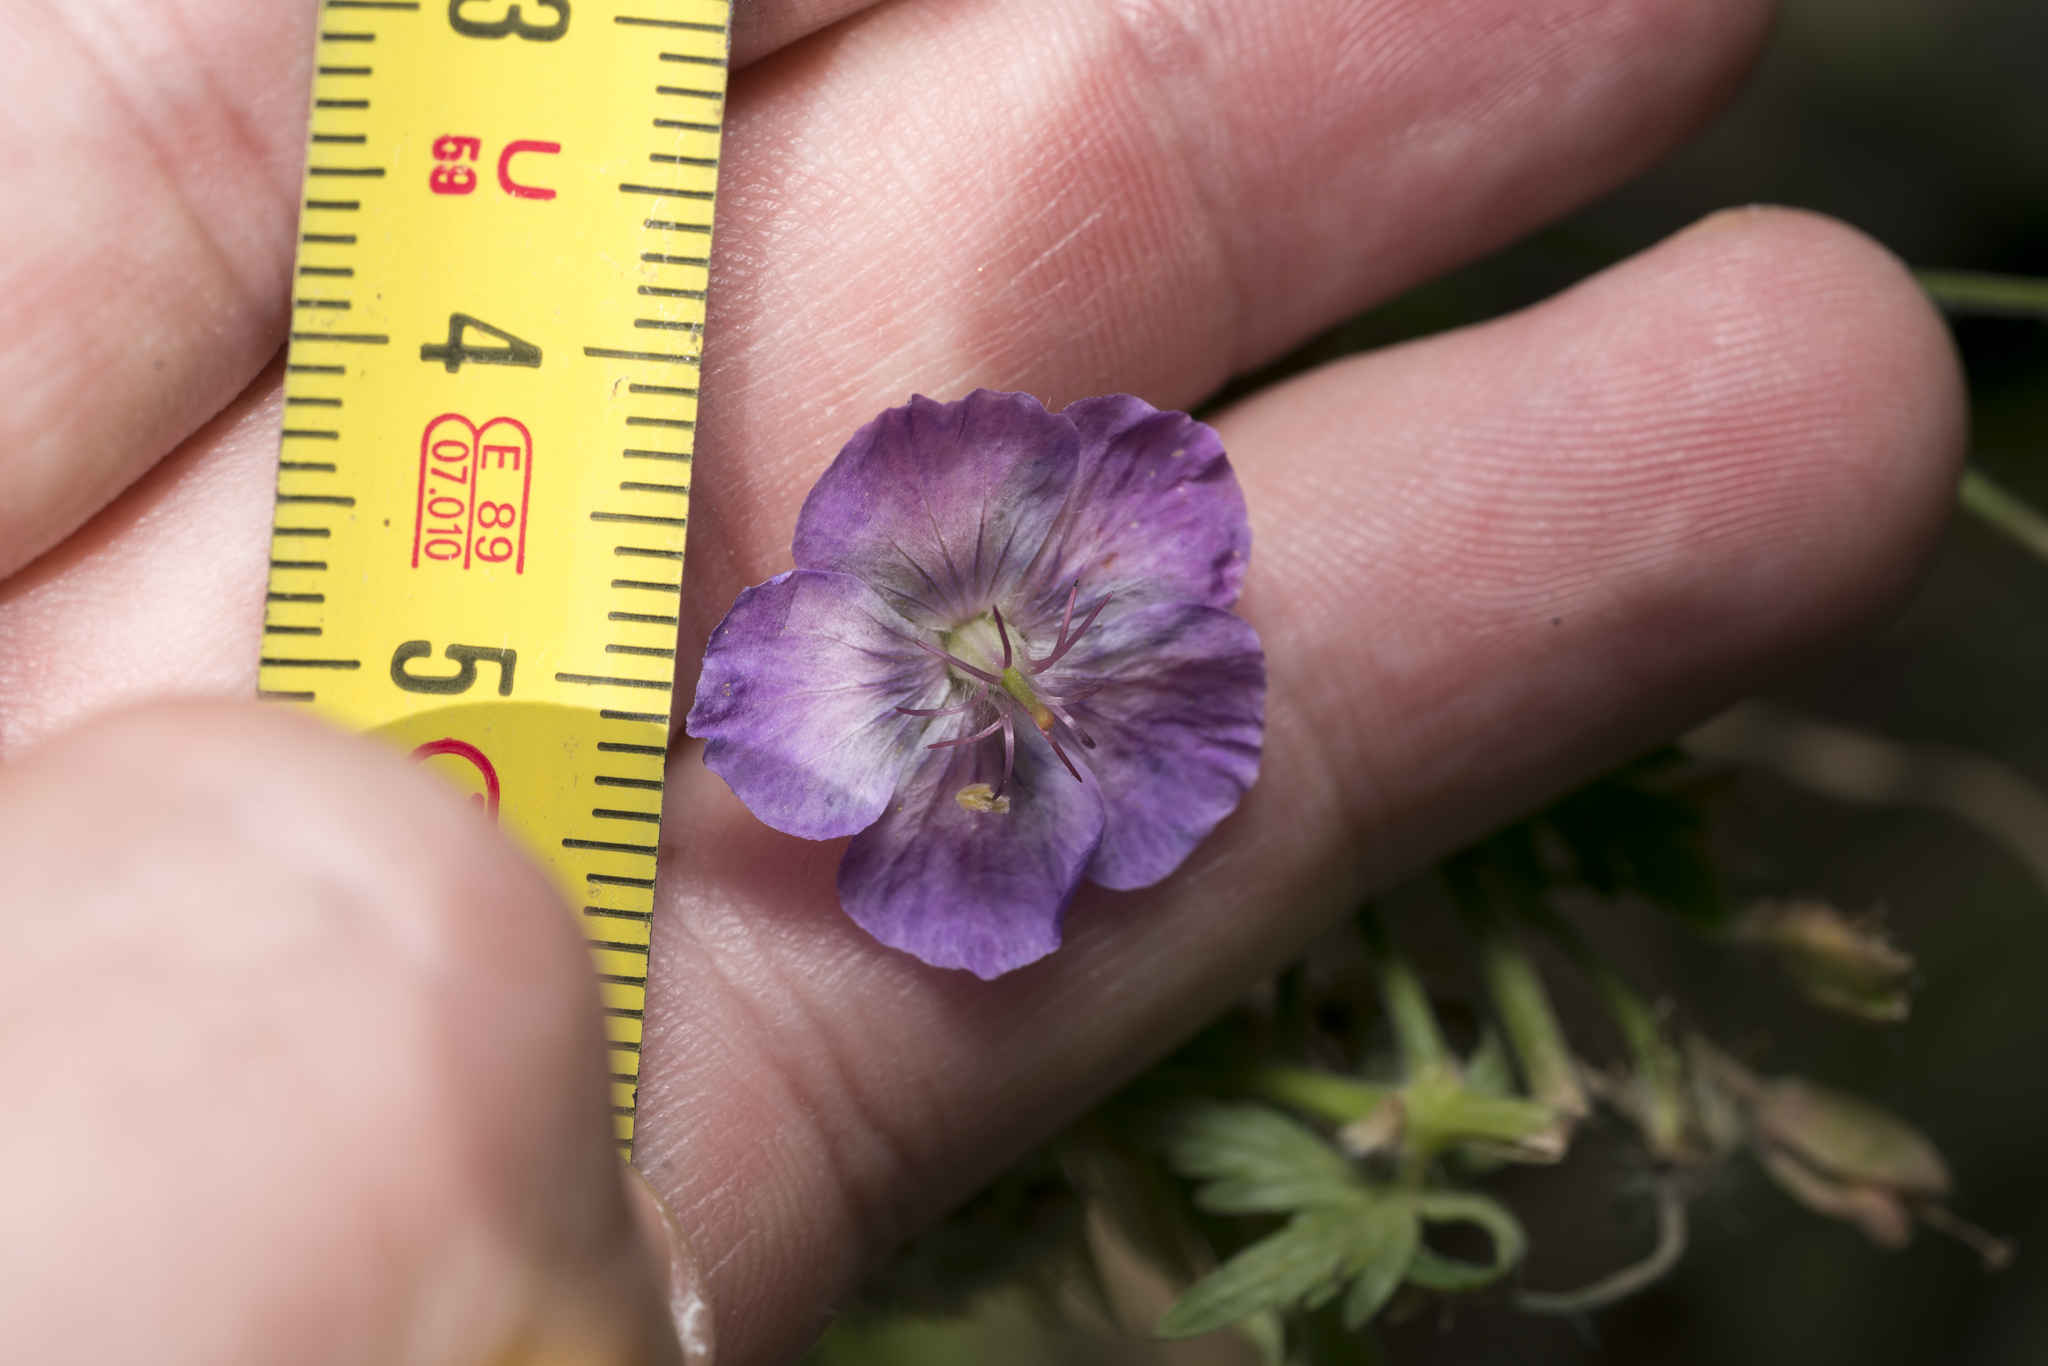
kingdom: Plantae
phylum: Tracheophyta
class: Magnoliopsida
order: Geraniales
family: Geraniaceae
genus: Geranium
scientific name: Geranium phaeum
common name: Dusky crane's-bill
